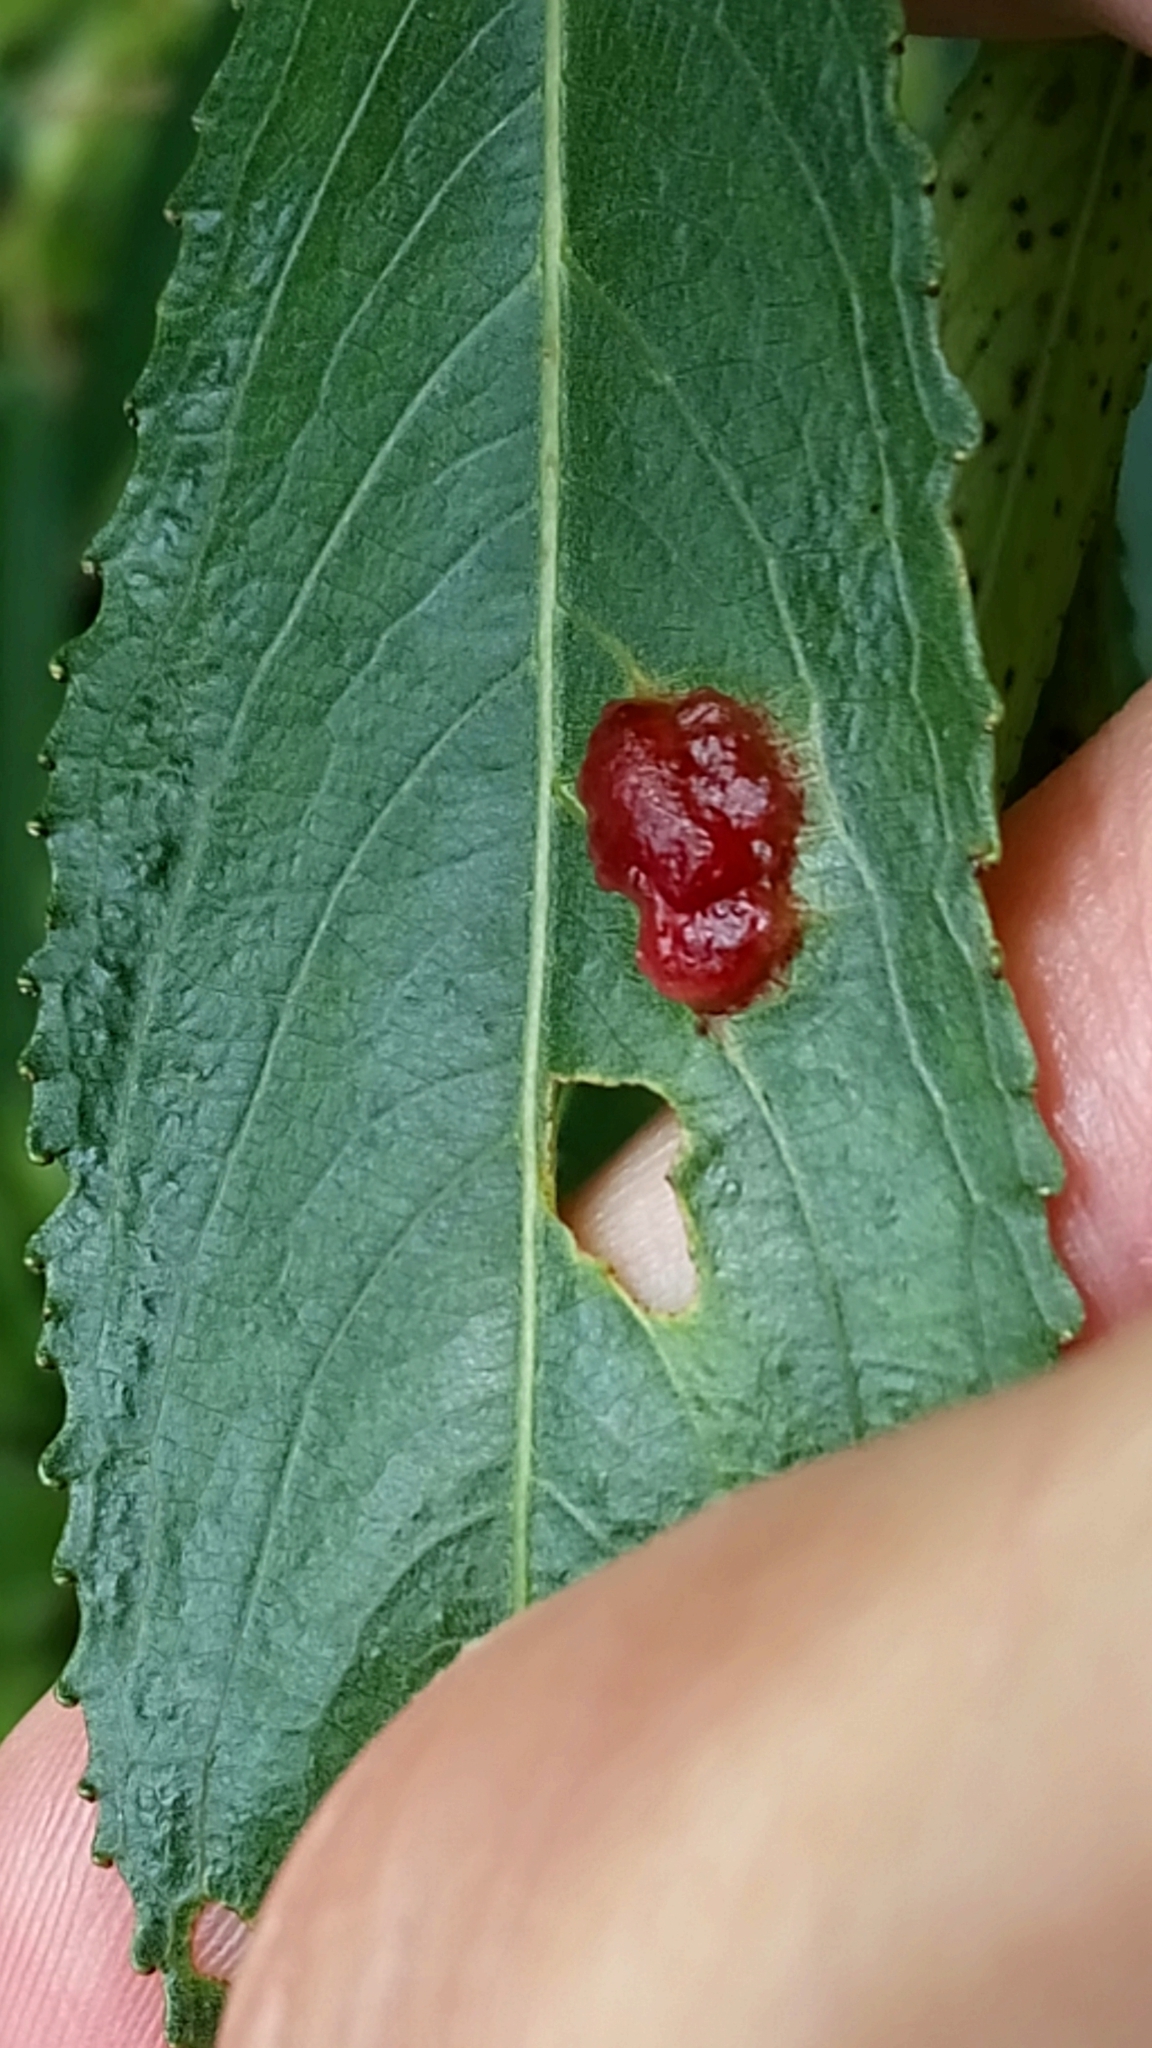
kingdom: Animalia
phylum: Arthropoda
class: Insecta
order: Hymenoptera
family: Tenthredinidae
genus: Pontania
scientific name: Pontania proxima
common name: Common sawfly
